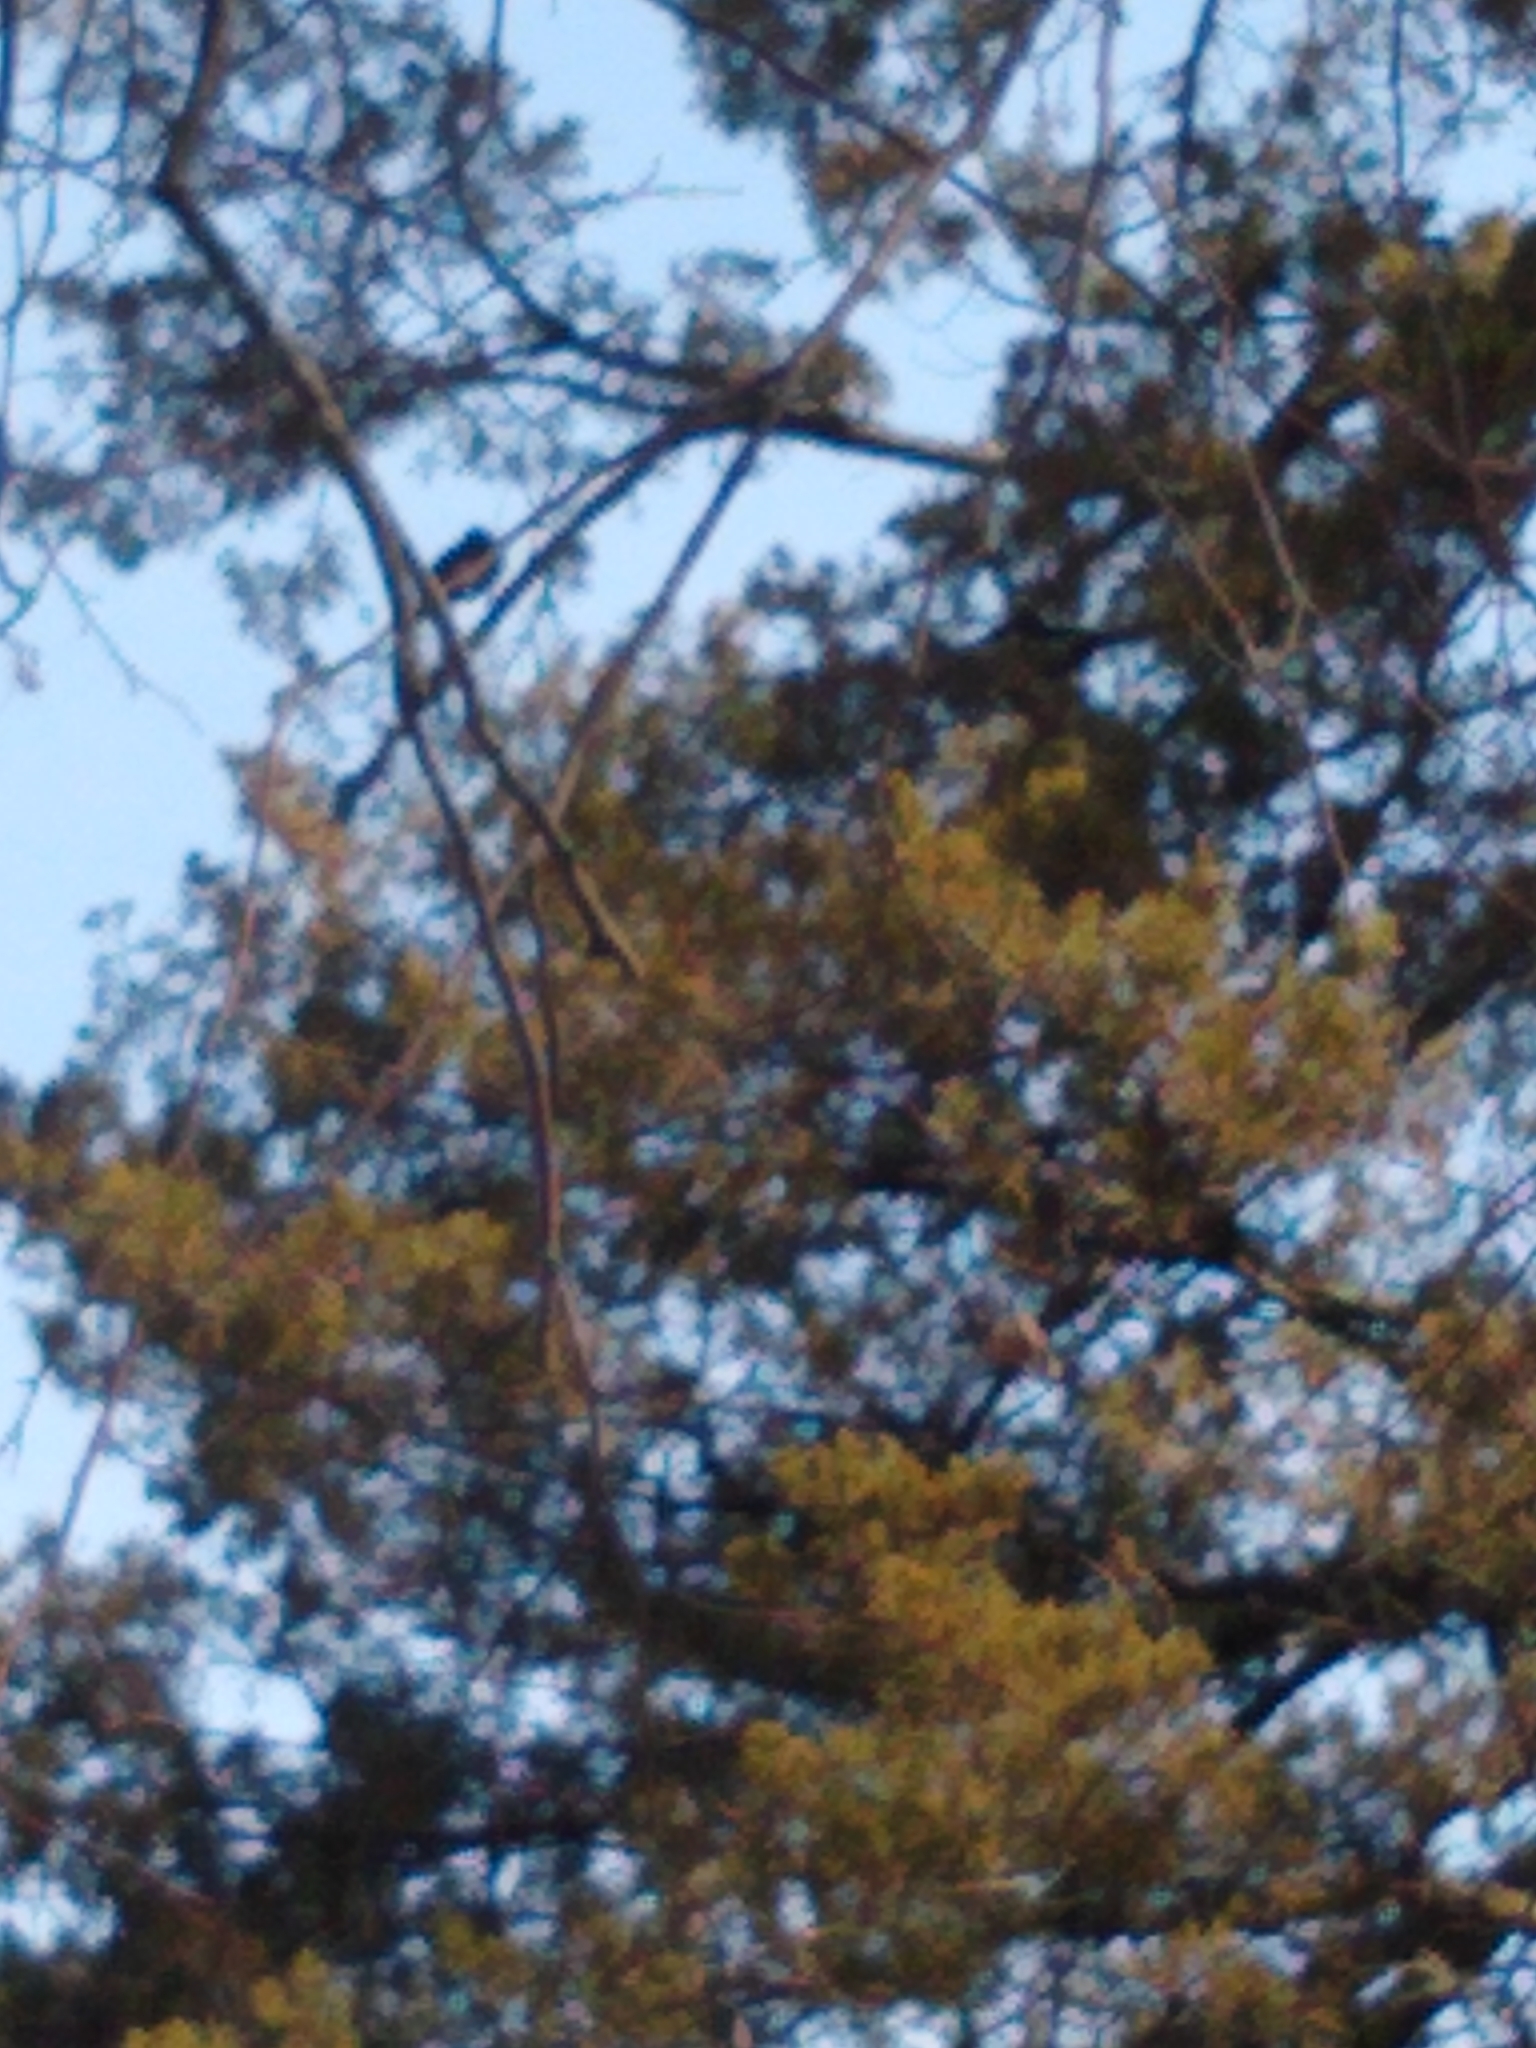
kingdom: Animalia
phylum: Chordata
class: Aves
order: Passeriformes
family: Icteridae
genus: Quiscalus
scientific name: Quiscalus quiscula
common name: Common grackle
